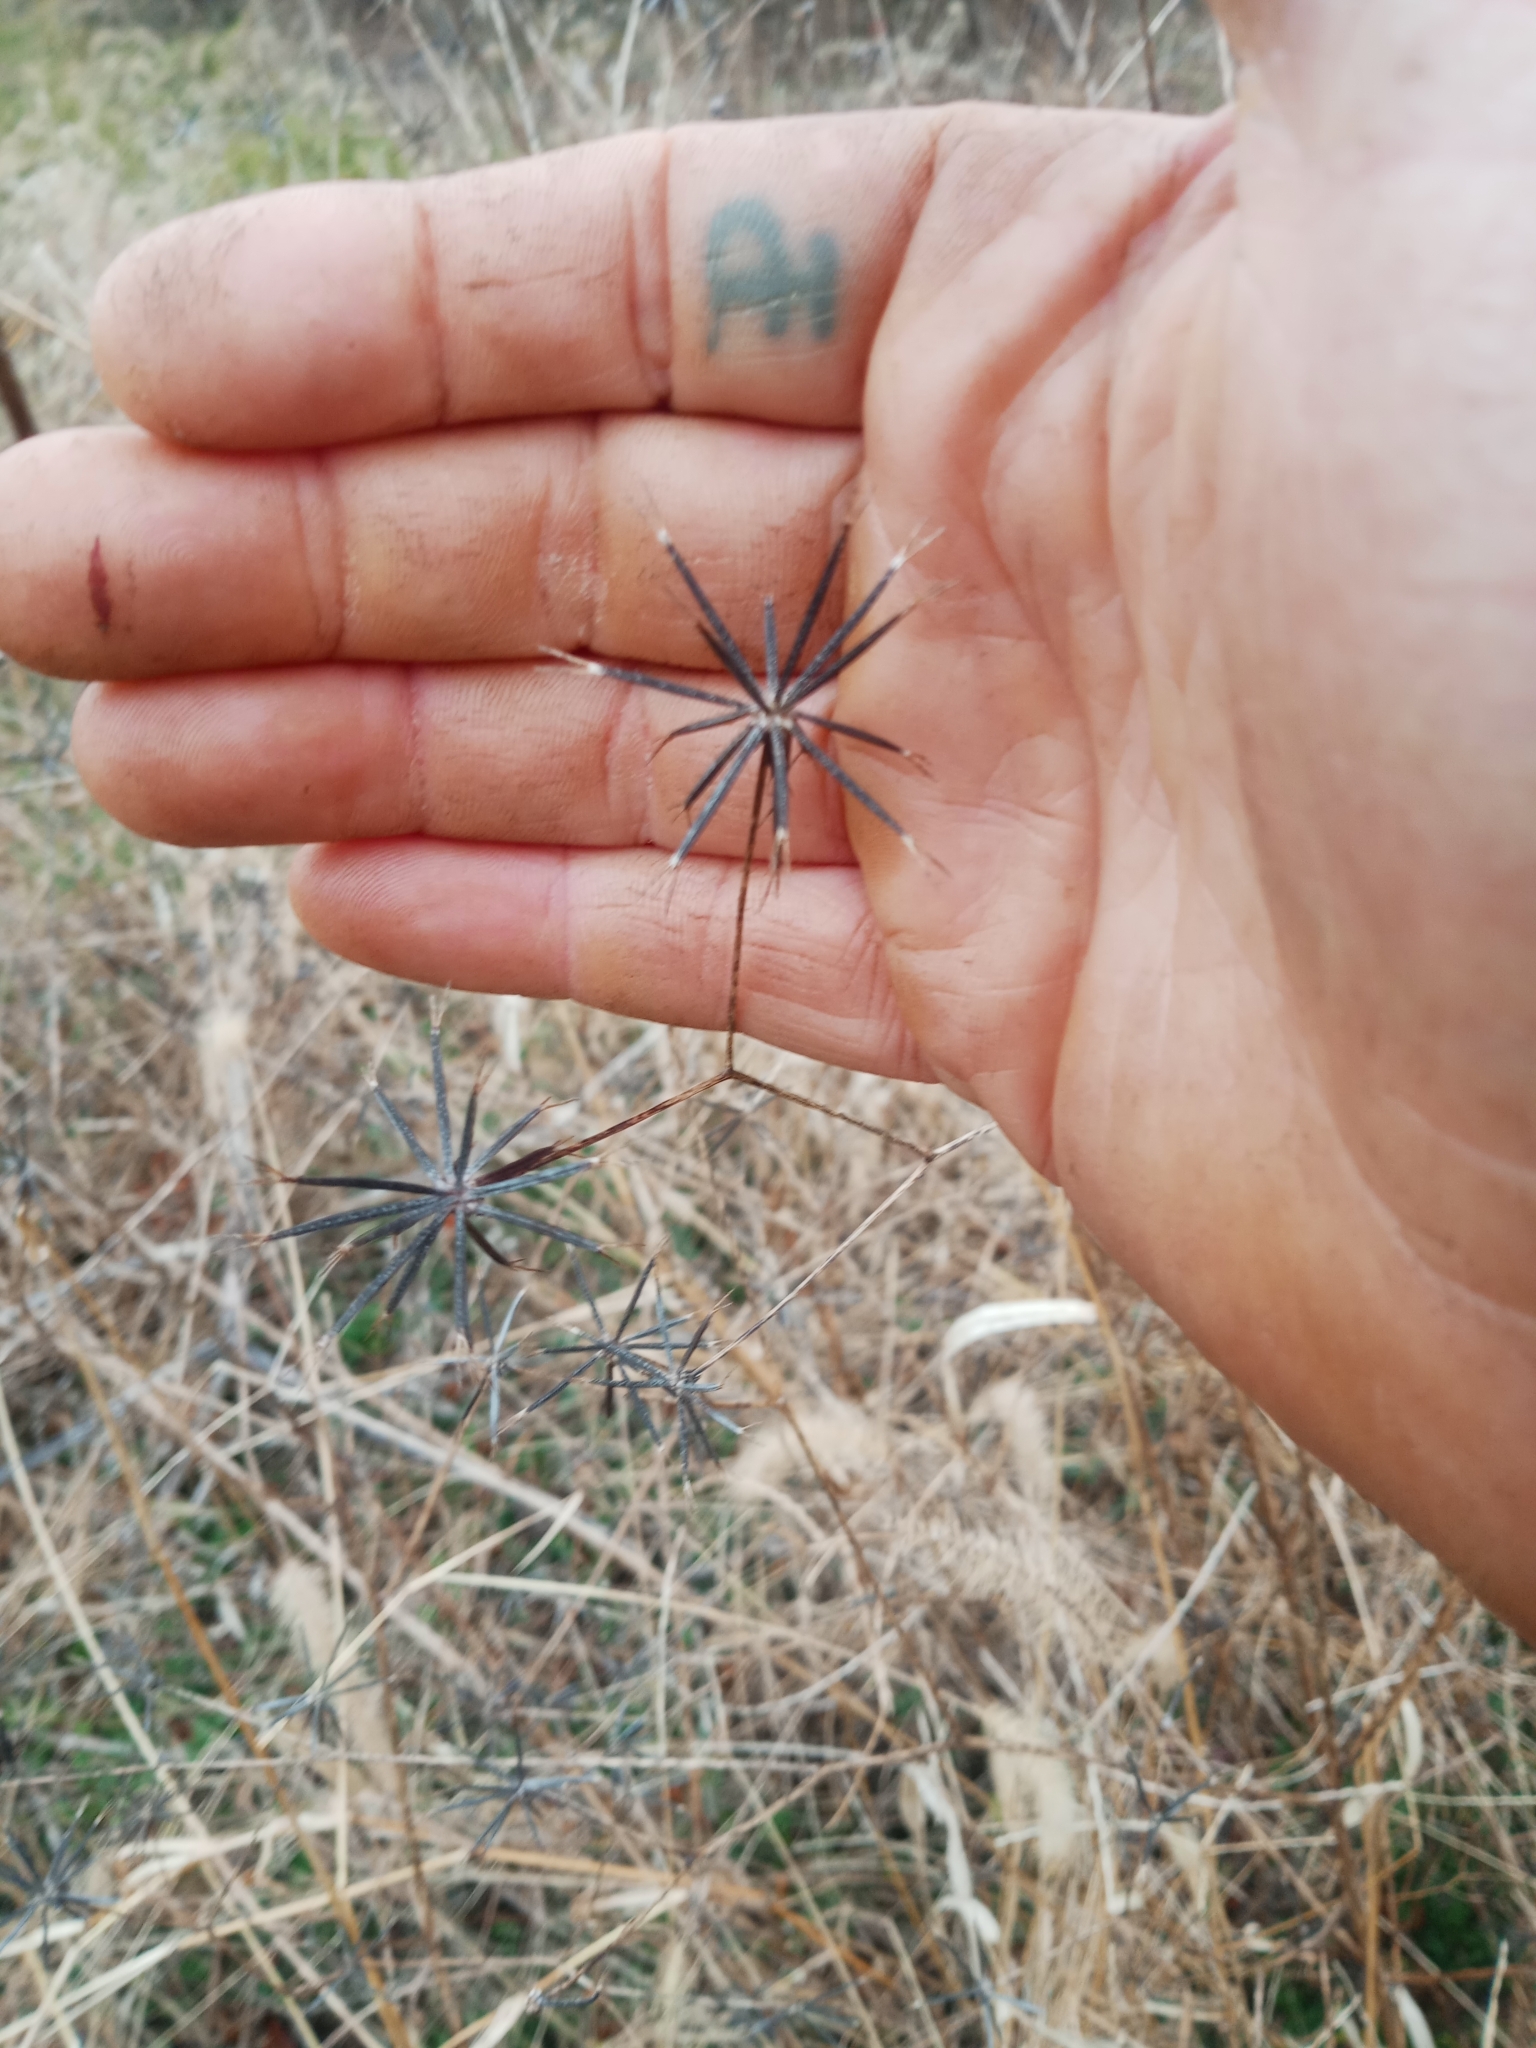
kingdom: Plantae
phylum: Tracheophyta
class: Magnoliopsida
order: Asterales
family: Asteraceae
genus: Bidens
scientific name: Bidens bipinnata
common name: Spanish-needles
